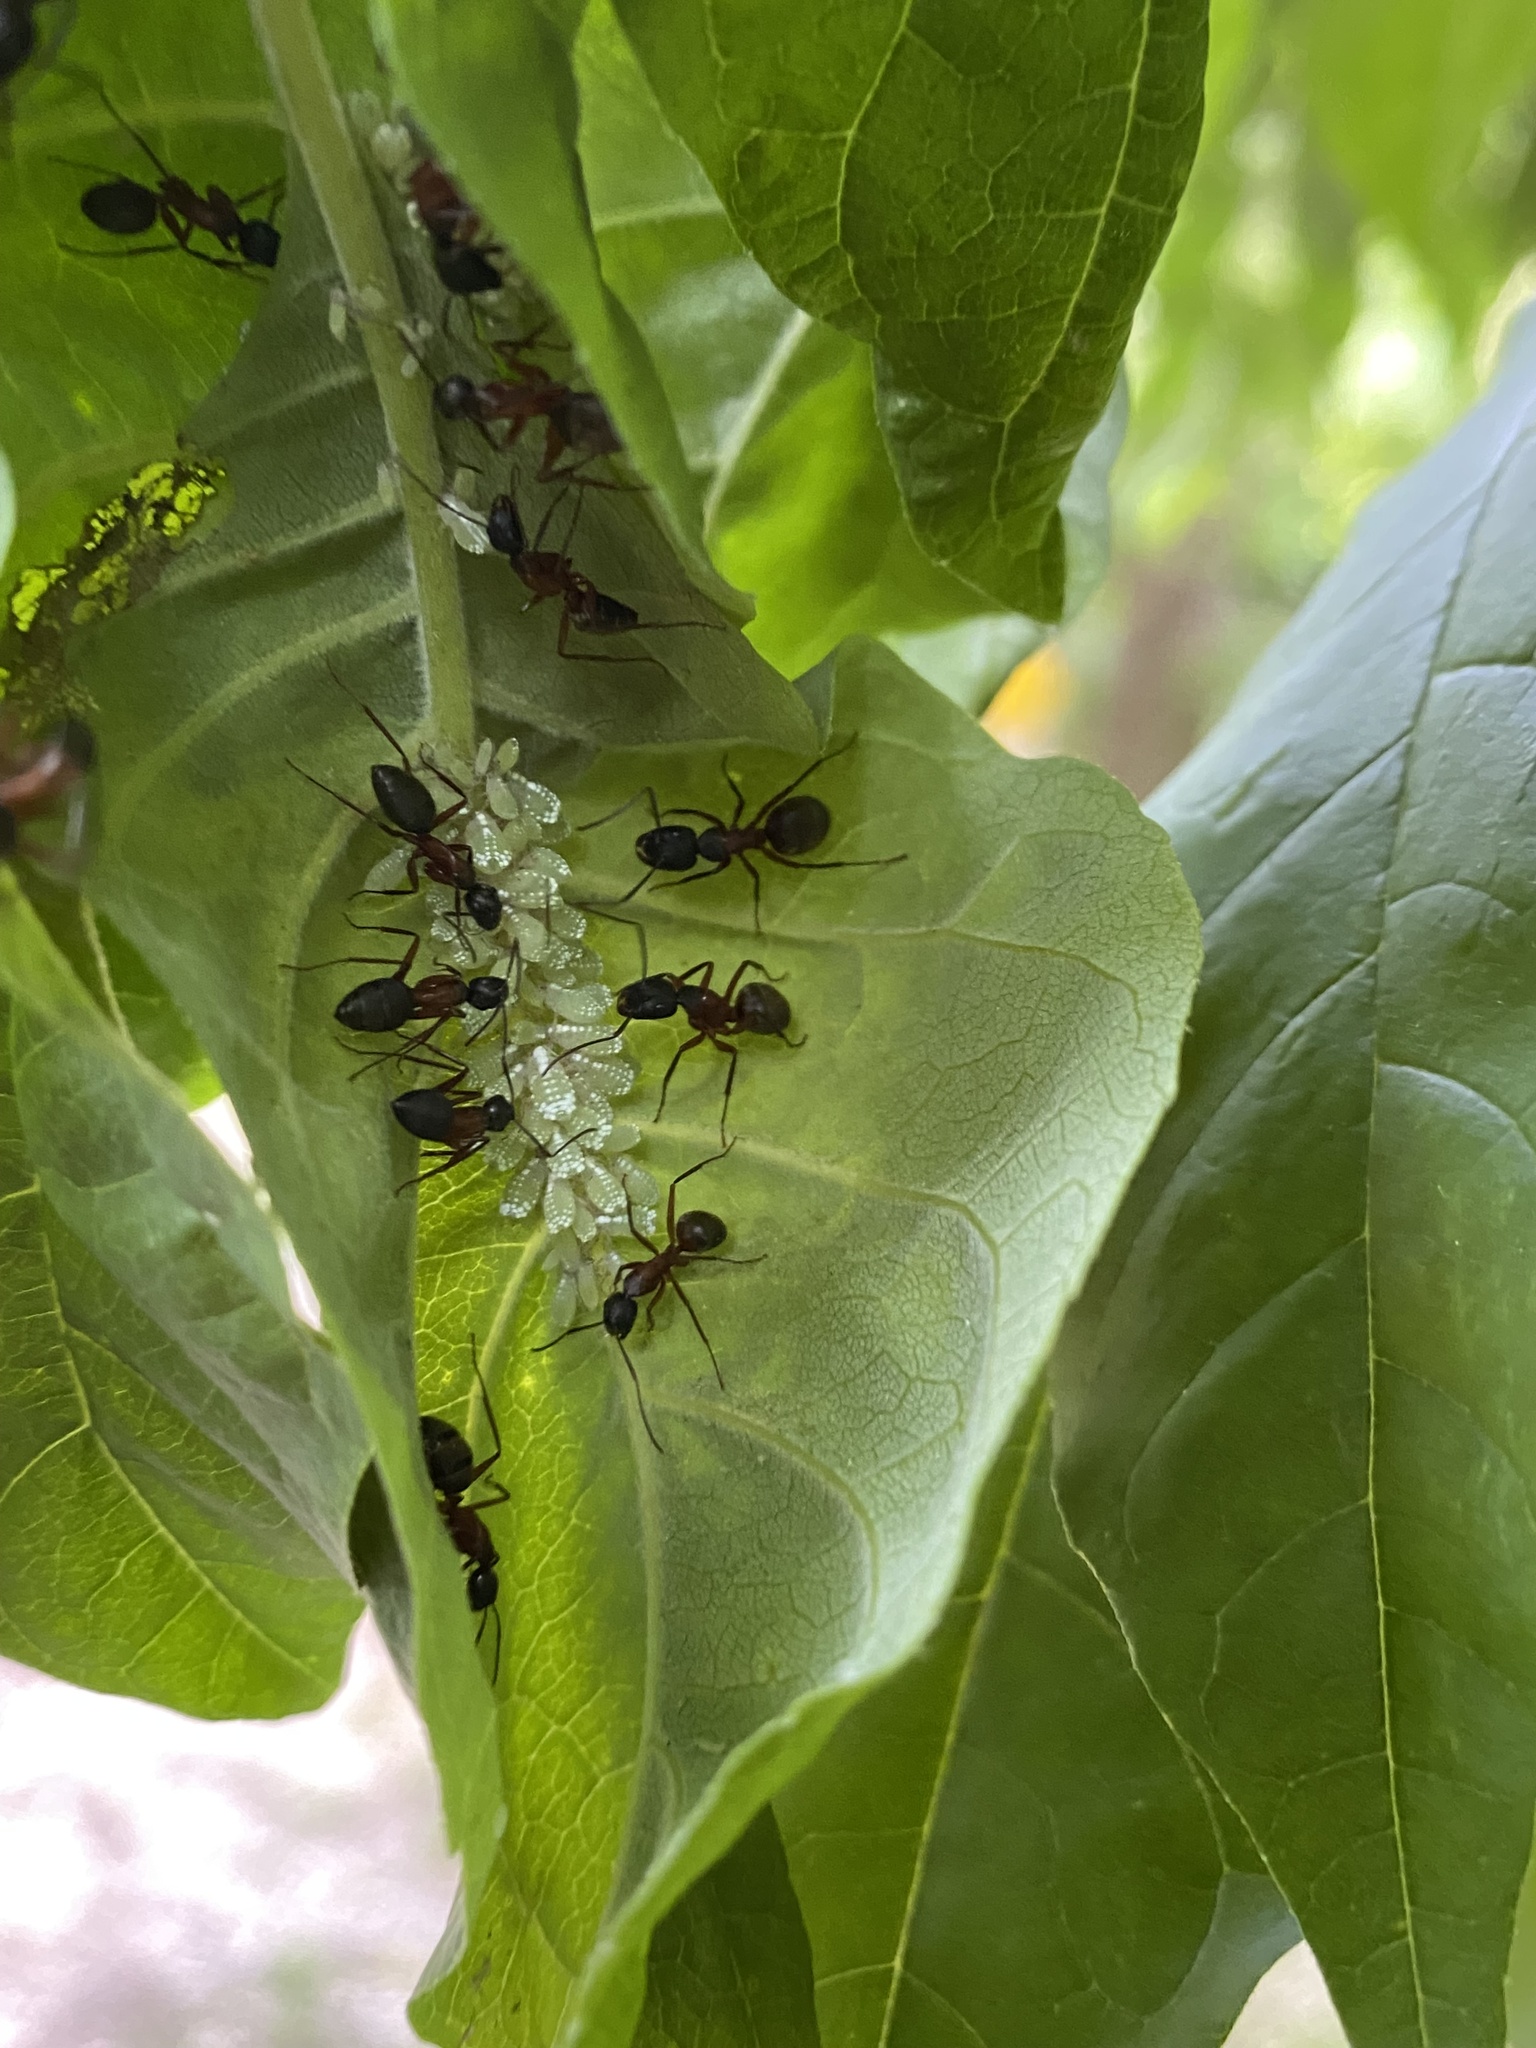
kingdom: Animalia
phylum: Arthropoda
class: Insecta
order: Hymenoptera
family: Formicidae
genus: Camponotus
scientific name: Camponotus chromaiodes
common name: Red carpenter ant
